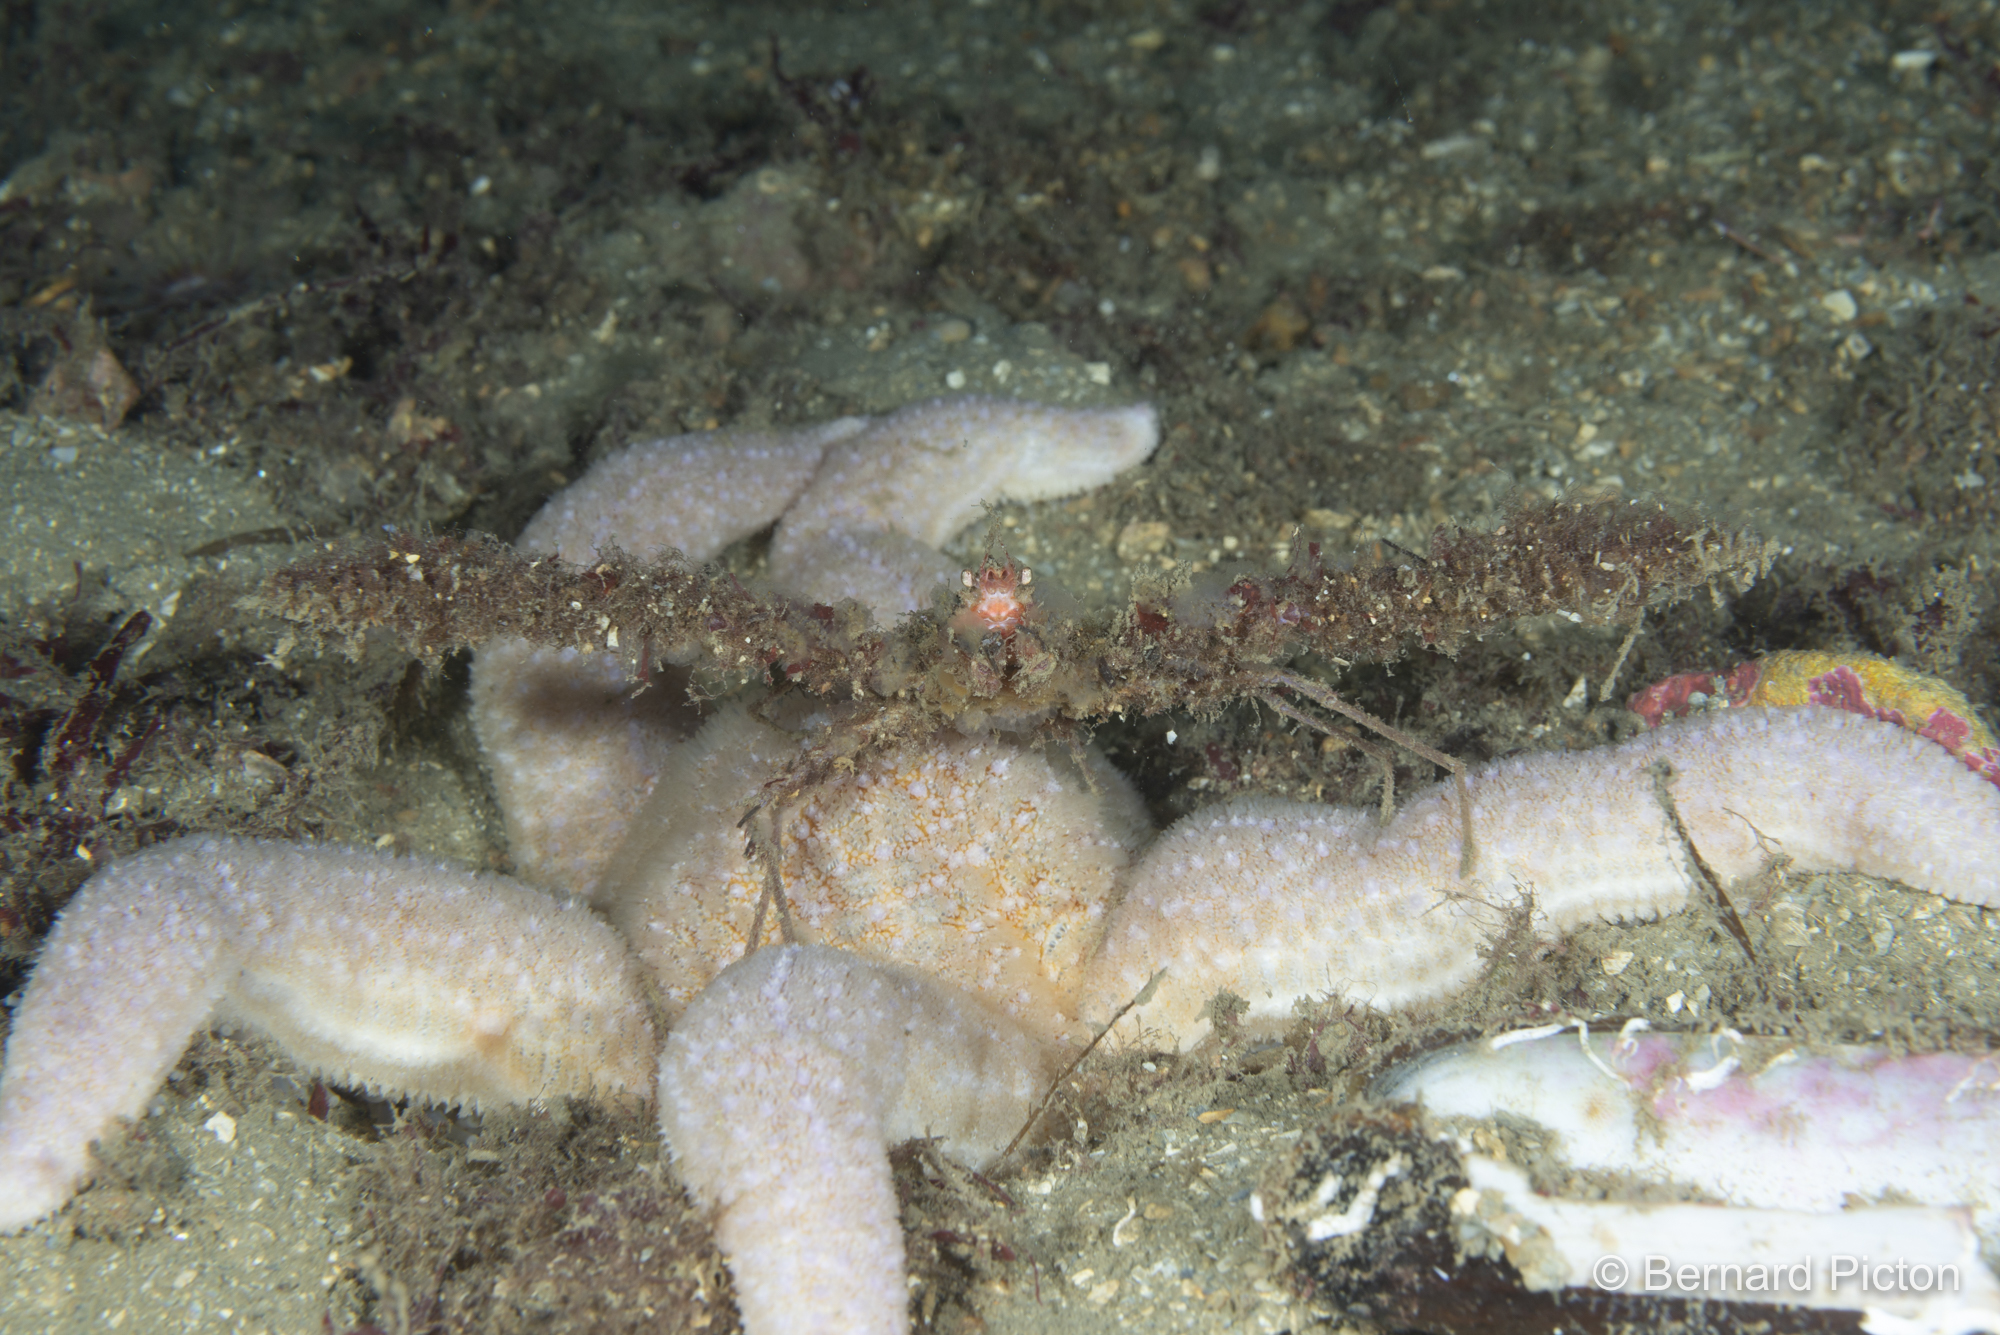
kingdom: Animalia
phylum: Arthropoda
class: Malacostraca
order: Decapoda
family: Inachidae
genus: Inachus
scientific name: Inachus dorsettensis
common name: Scorpion spider crab
